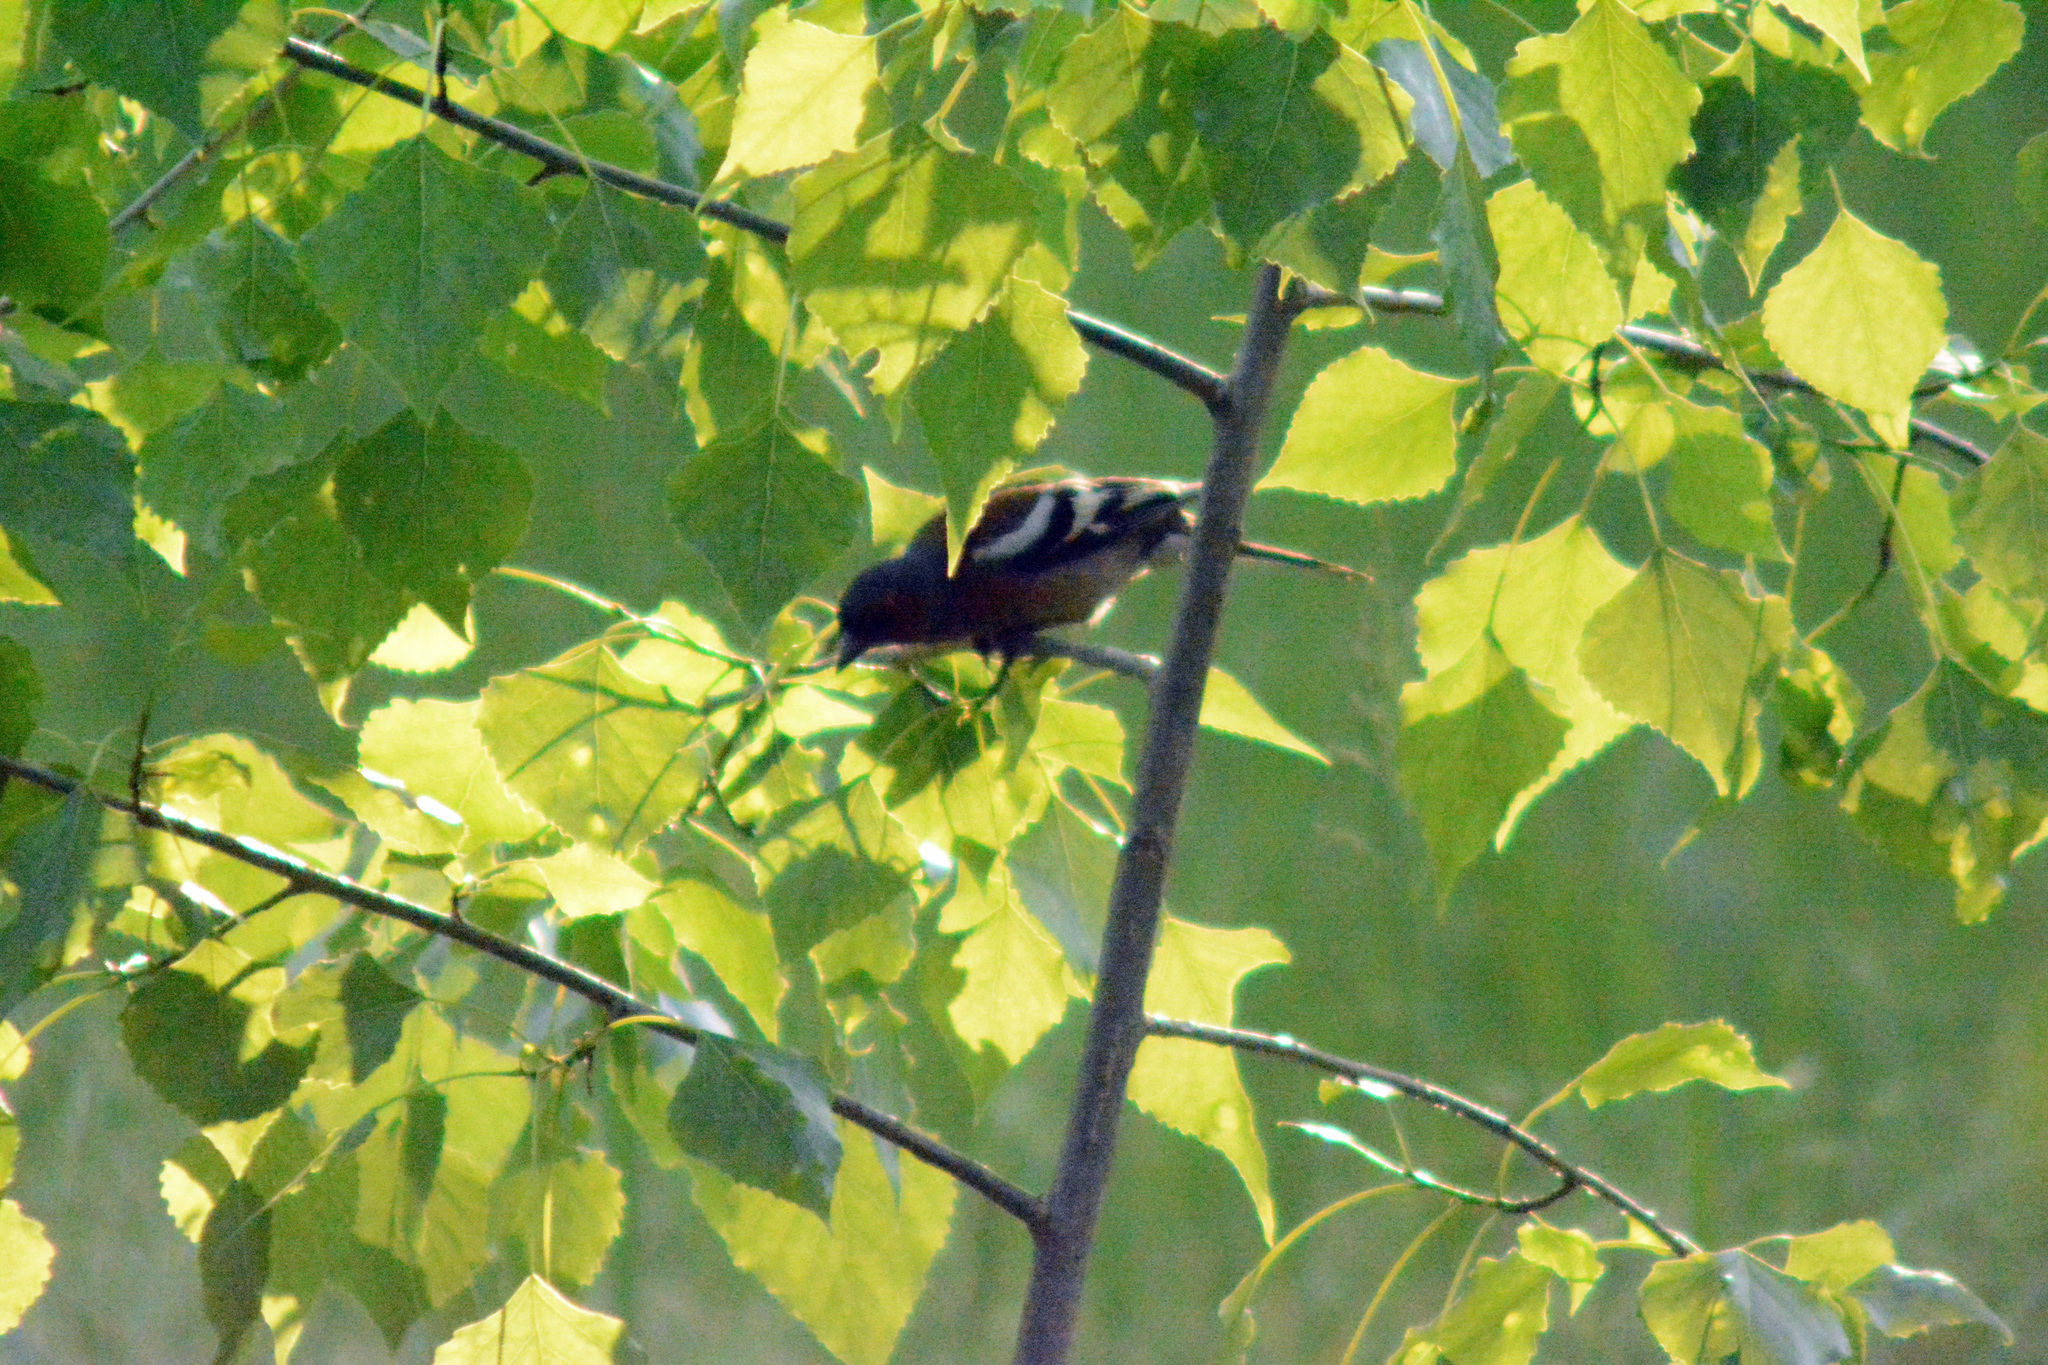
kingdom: Animalia
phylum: Chordata
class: Aves
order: Passeriformes
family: Fringillidae
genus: Fringilla
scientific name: Fringilla coelebs
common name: Common chaffinch
